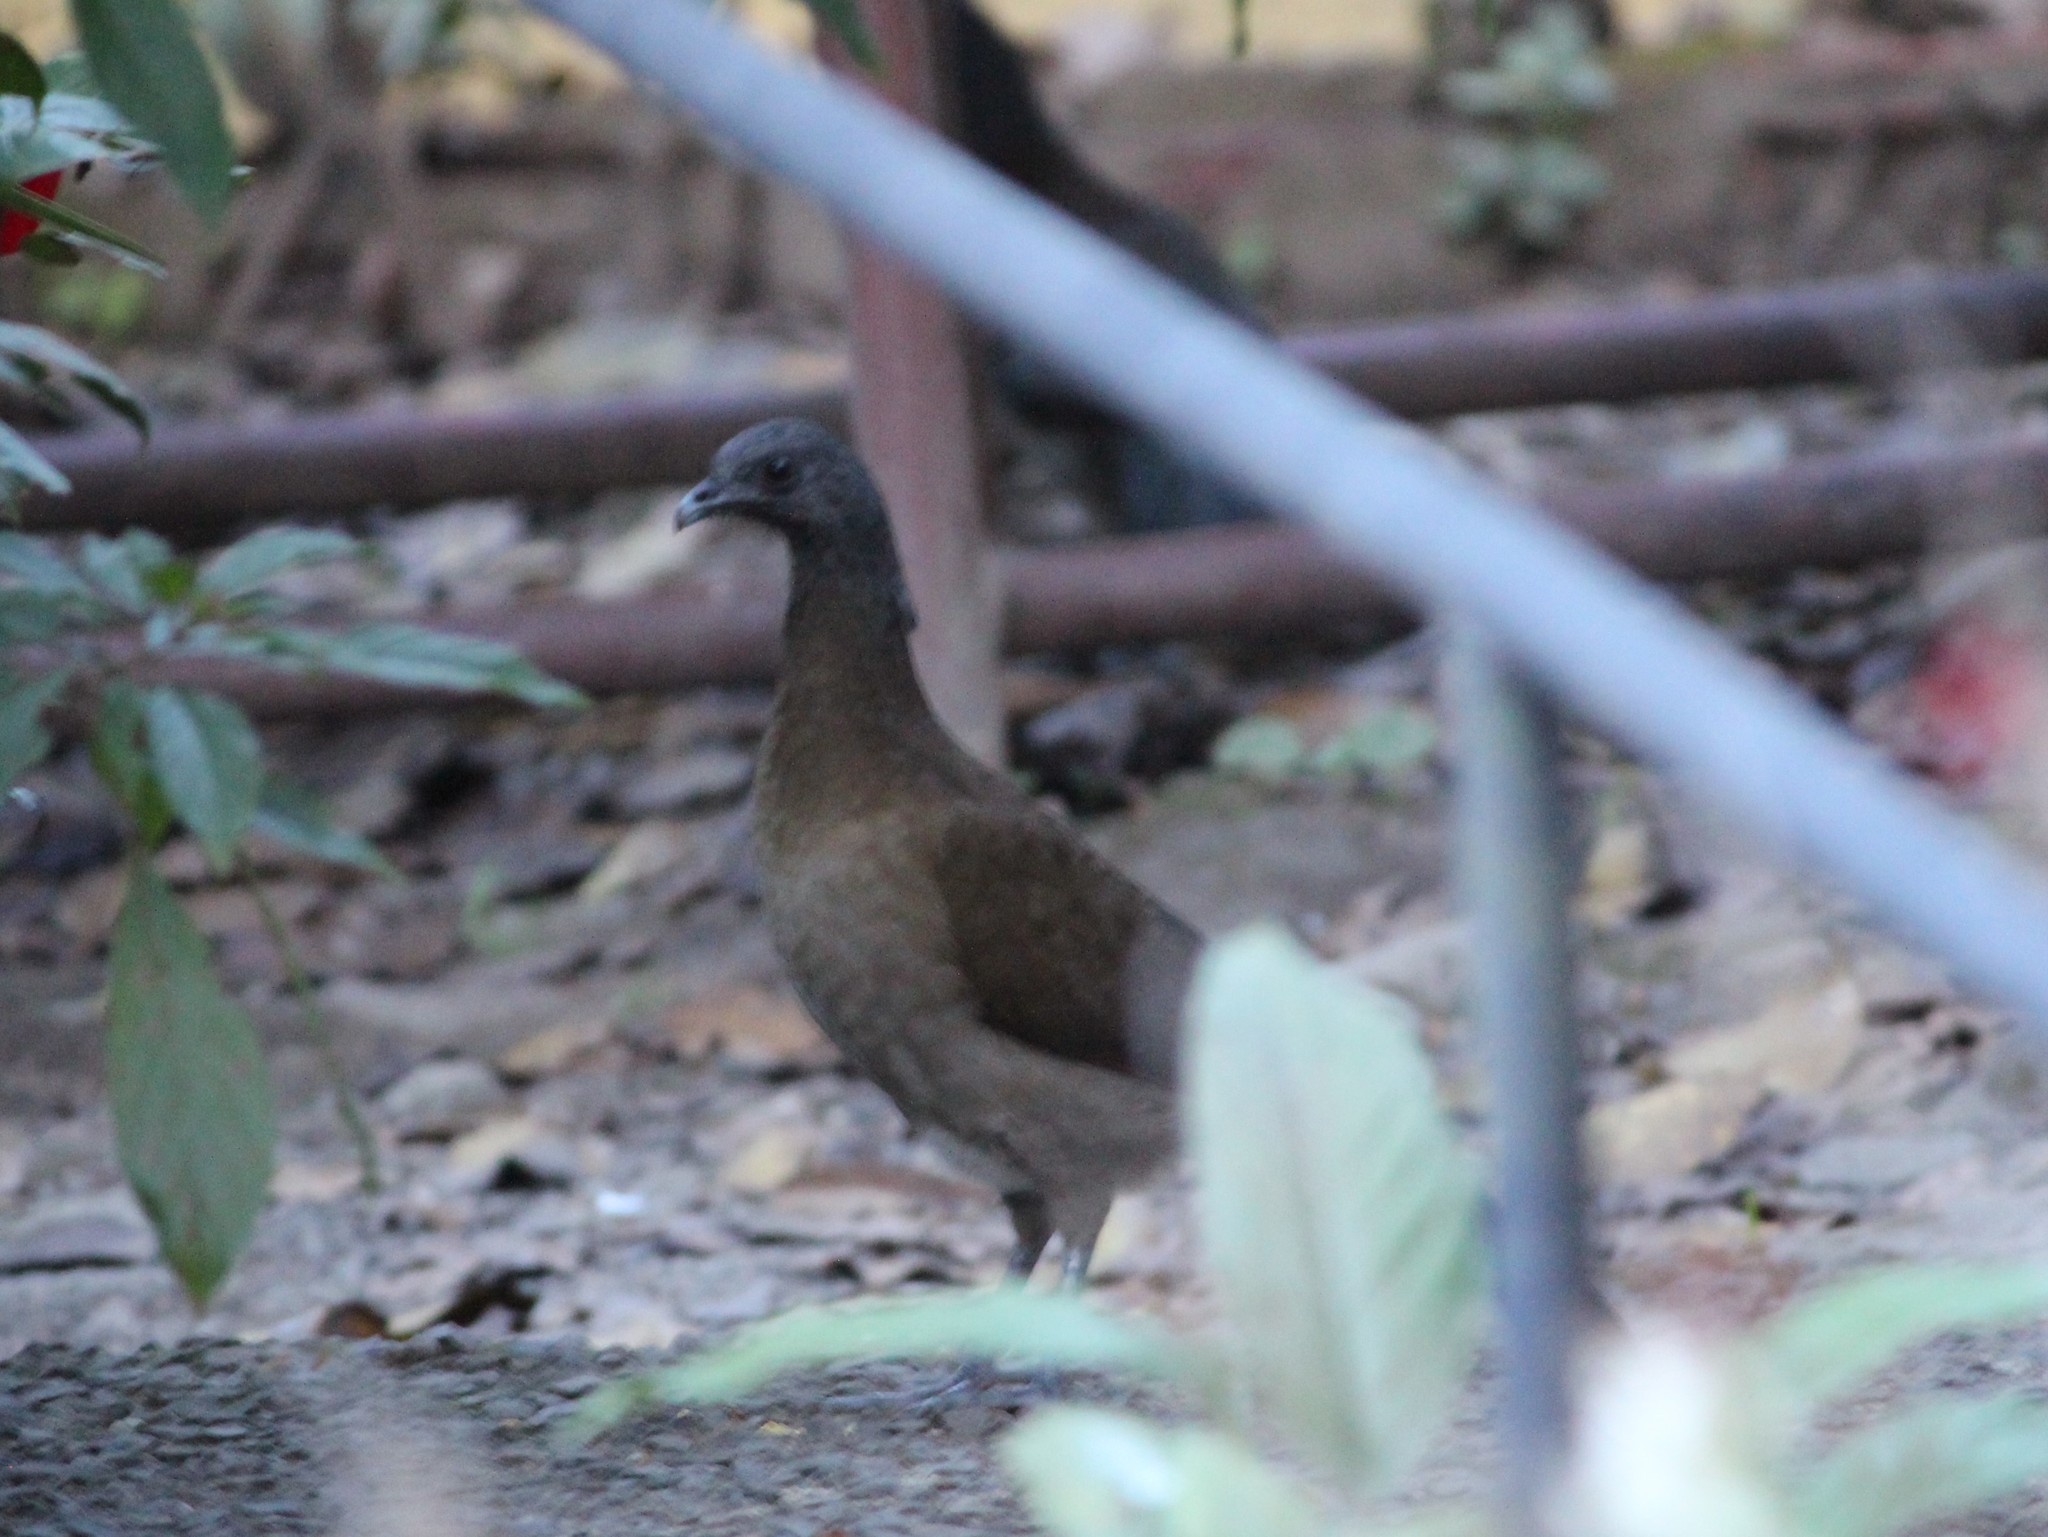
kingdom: Animalia
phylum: Chordata
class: Aves
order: Galliformes
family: Cracidae
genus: Ortalis
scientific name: Ortalis cinereiceps
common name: Grey-headed chachalaca
